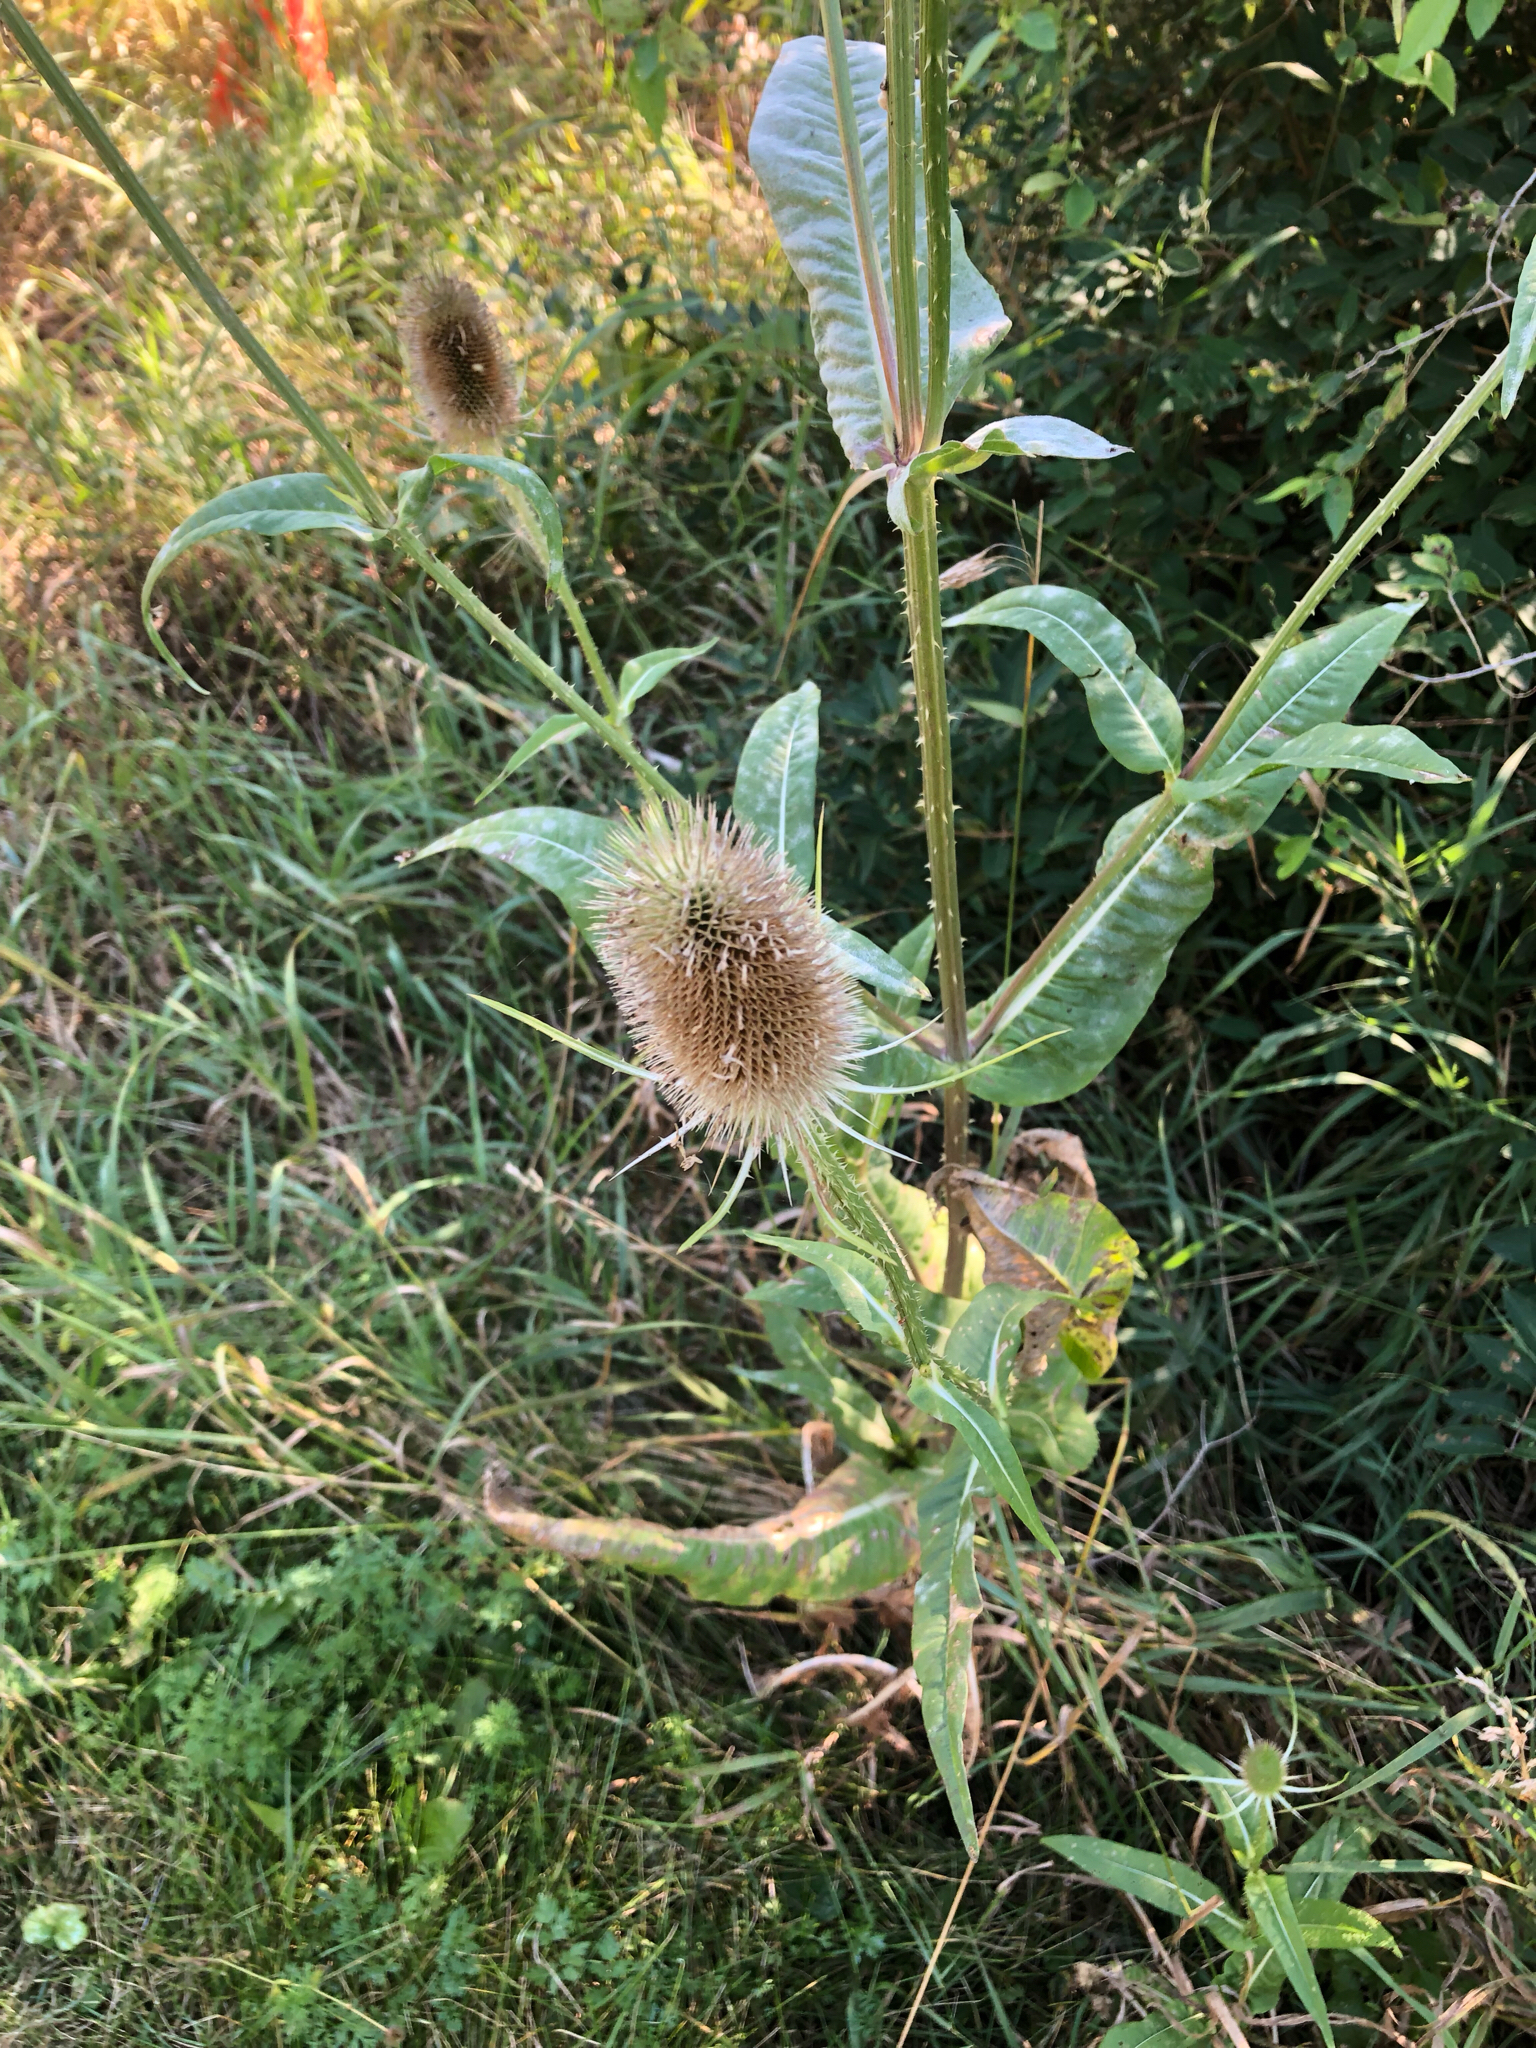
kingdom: Plantae
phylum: Tracheophyta
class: Magnoliopsida
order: Dipsacales
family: Caprifoliaceae
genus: Dipsacus
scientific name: Dipsacus fullonum
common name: Teasel
